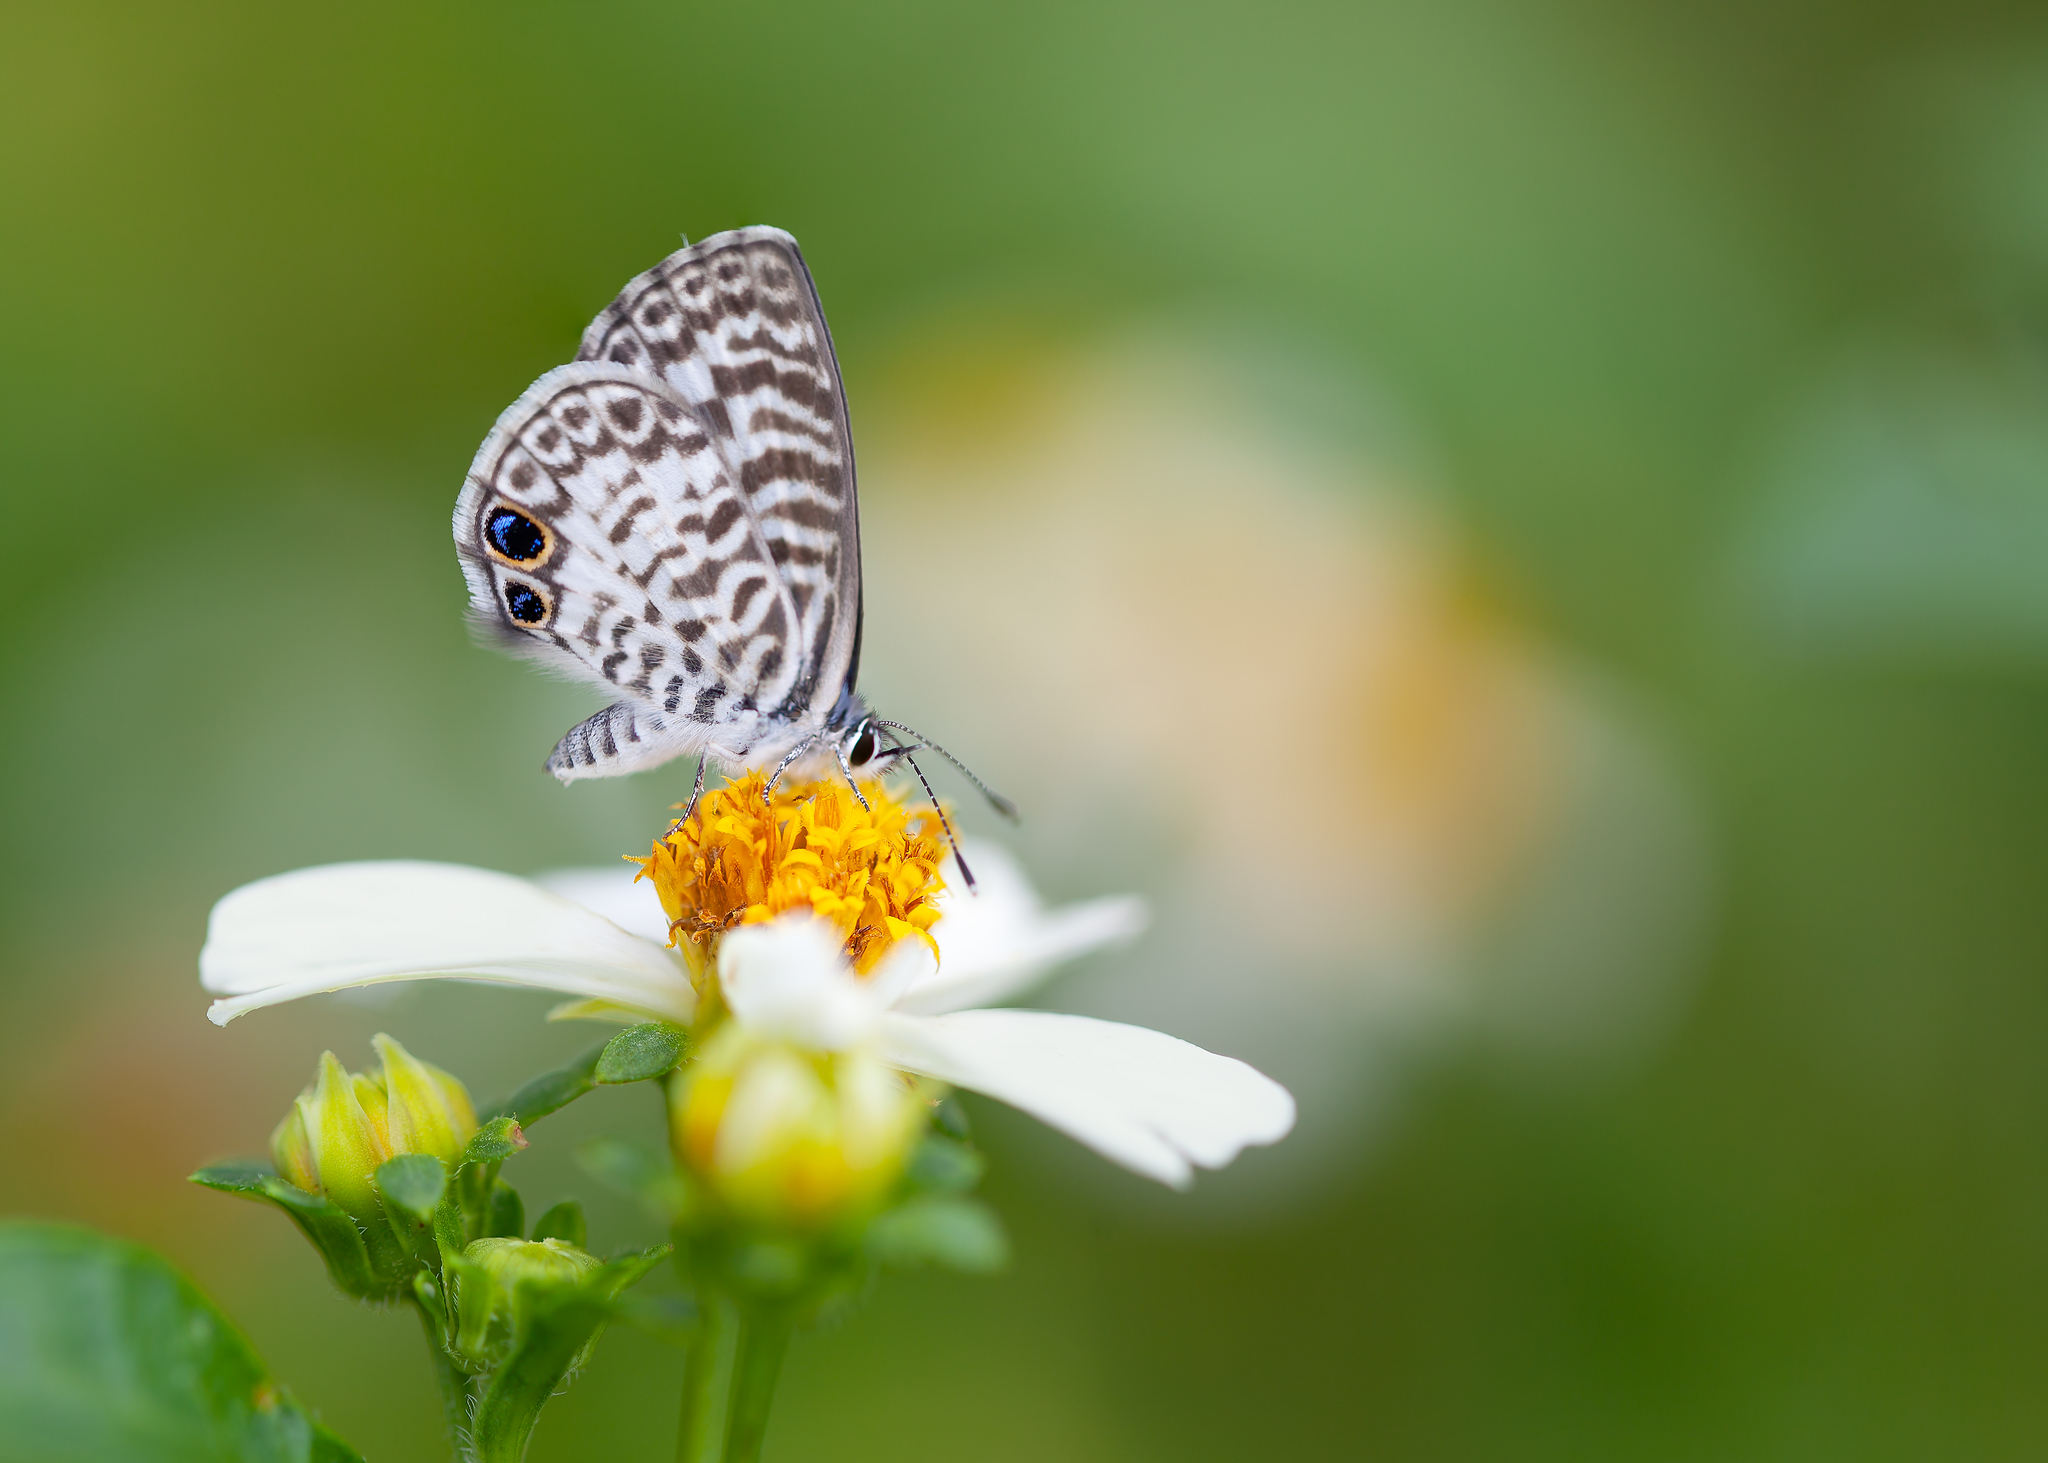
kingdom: Animalia
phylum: Arthropoda
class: Insecta
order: Lepidoptera
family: Lycaenidae
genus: Leptotes
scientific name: Leptotes cassius
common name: Cassius blue
